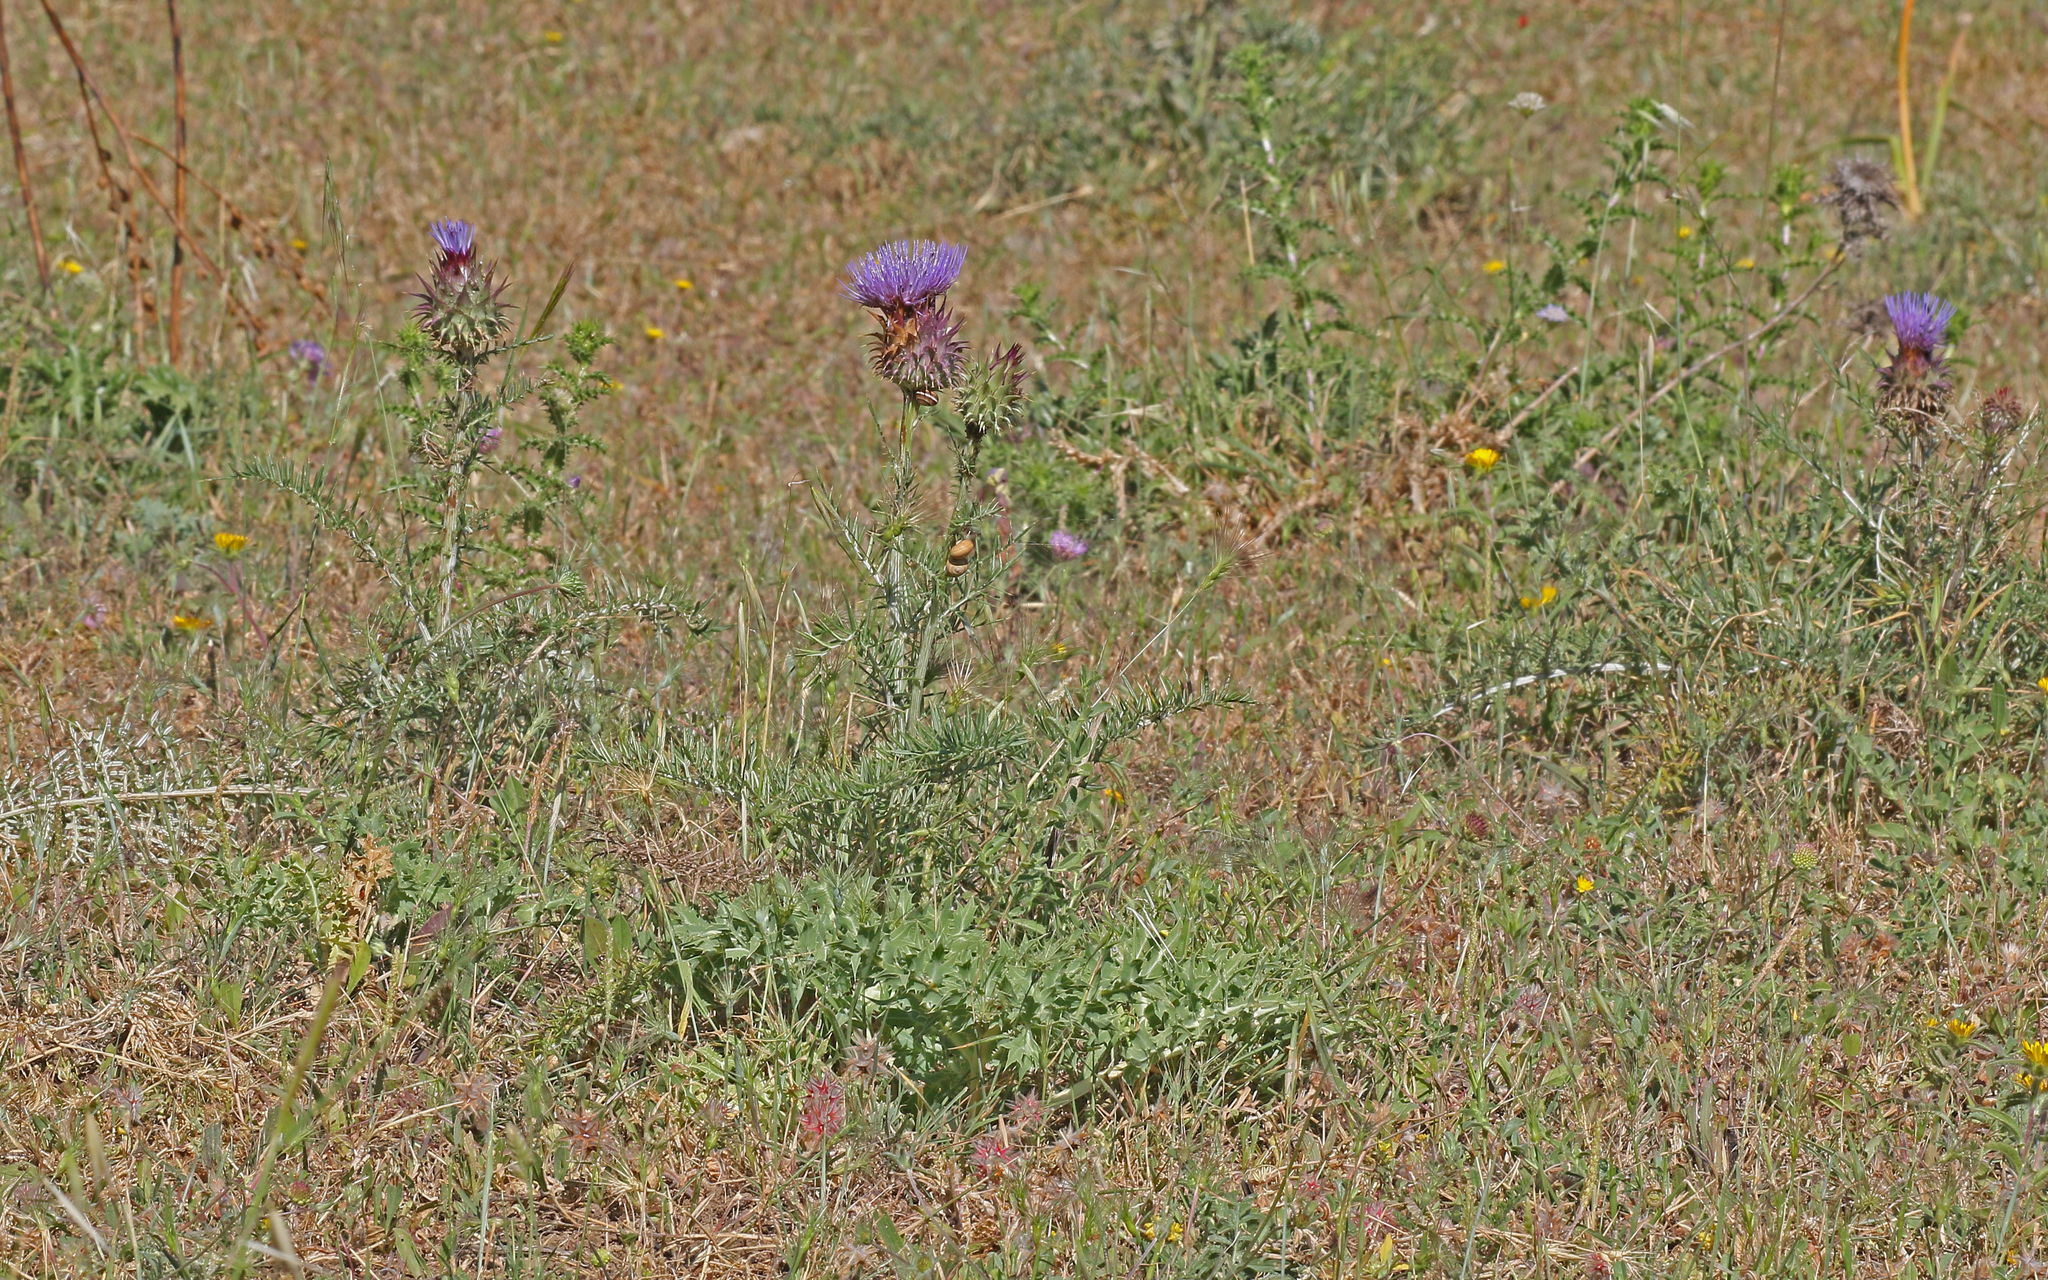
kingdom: Plantae
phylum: Tracheophyta
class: Magnoliopsida
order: Asterales
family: Asteraceae
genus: Cynara
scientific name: Cynara cardunculus
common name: Globe artichoke
